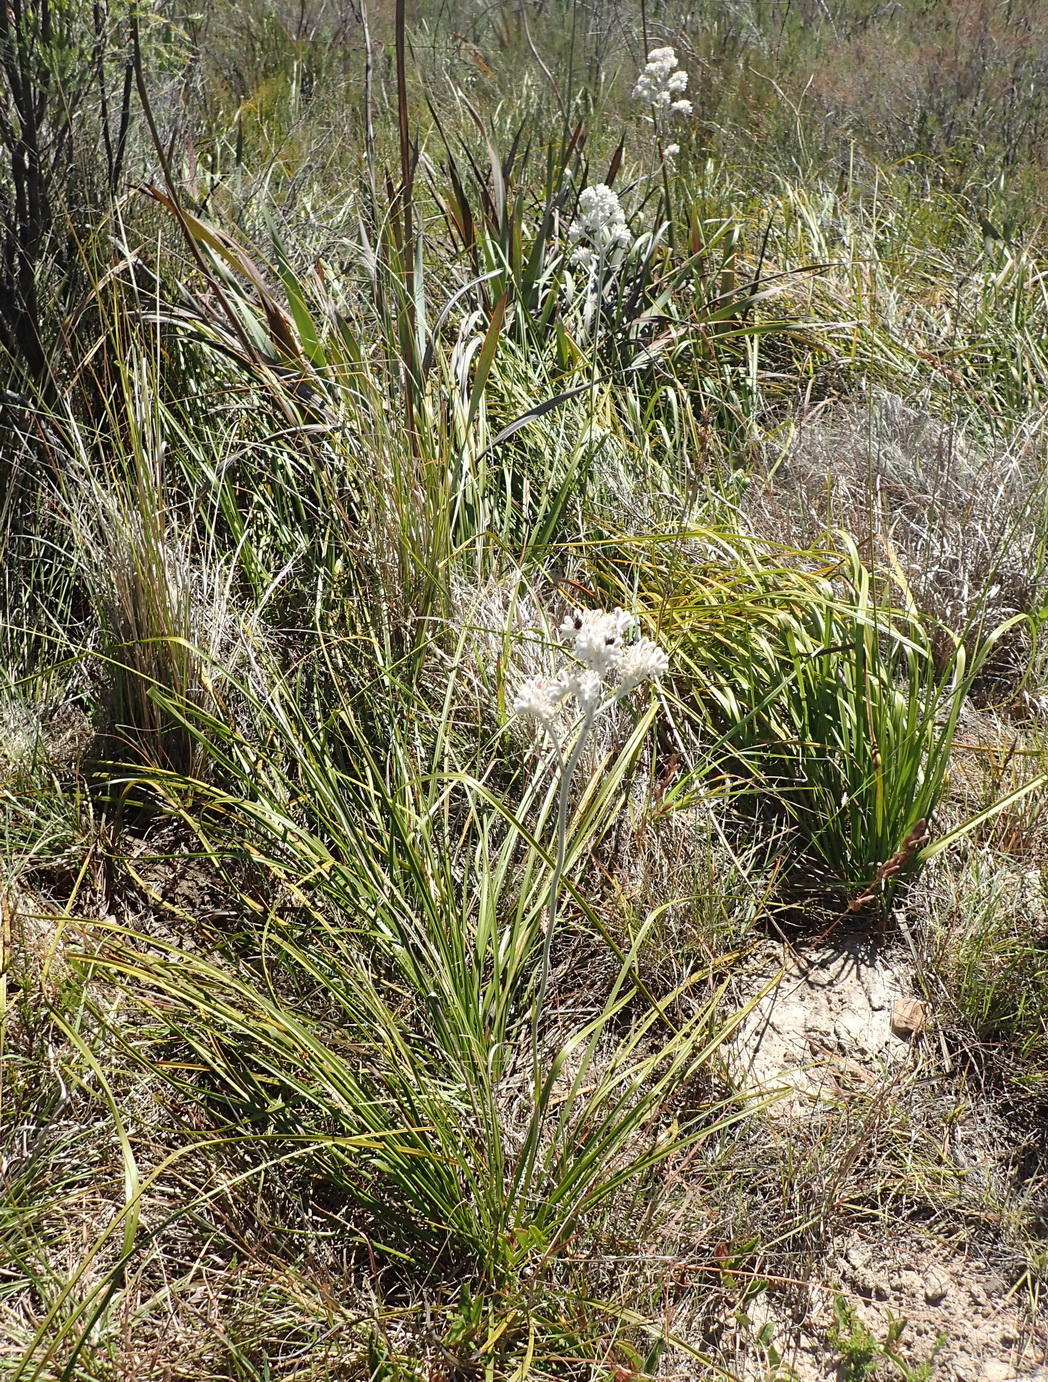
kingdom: Plantae
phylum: Tracheophyta
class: Liliopsida
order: Asparagales
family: Lanariaceae
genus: Lanaria
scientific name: Lanaria lanata
